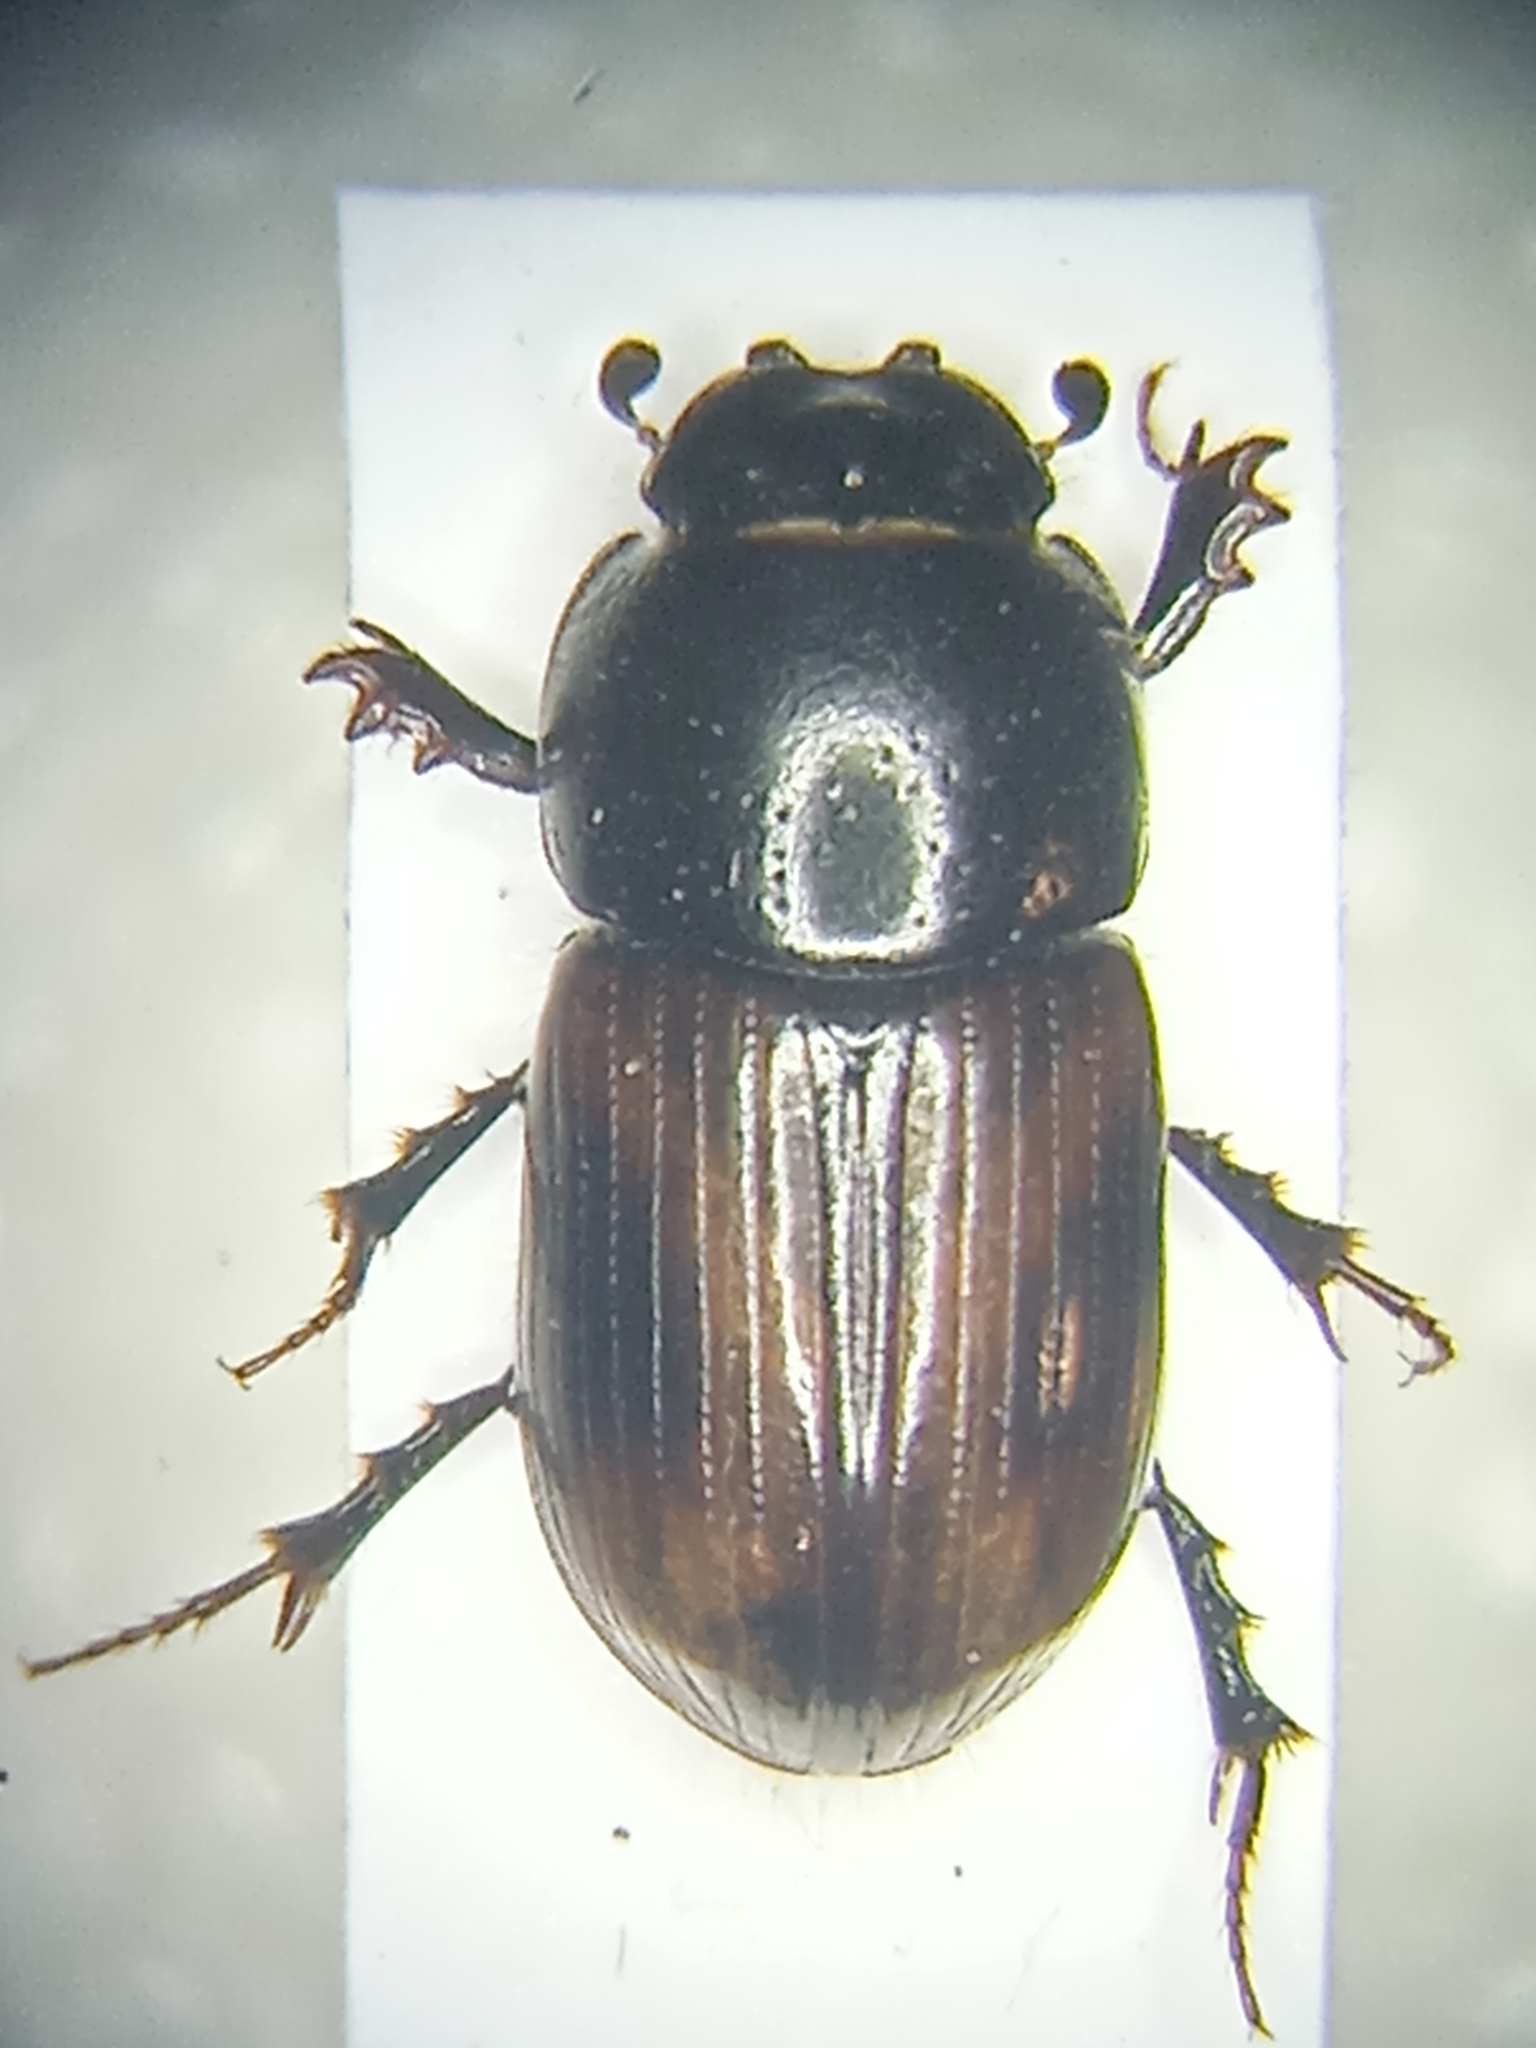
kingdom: Animalia
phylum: Arthropoda
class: Insecta
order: Coleoptera
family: Scarabaeidae
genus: Phaeaphodius
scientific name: Phaeaphodius rectus
